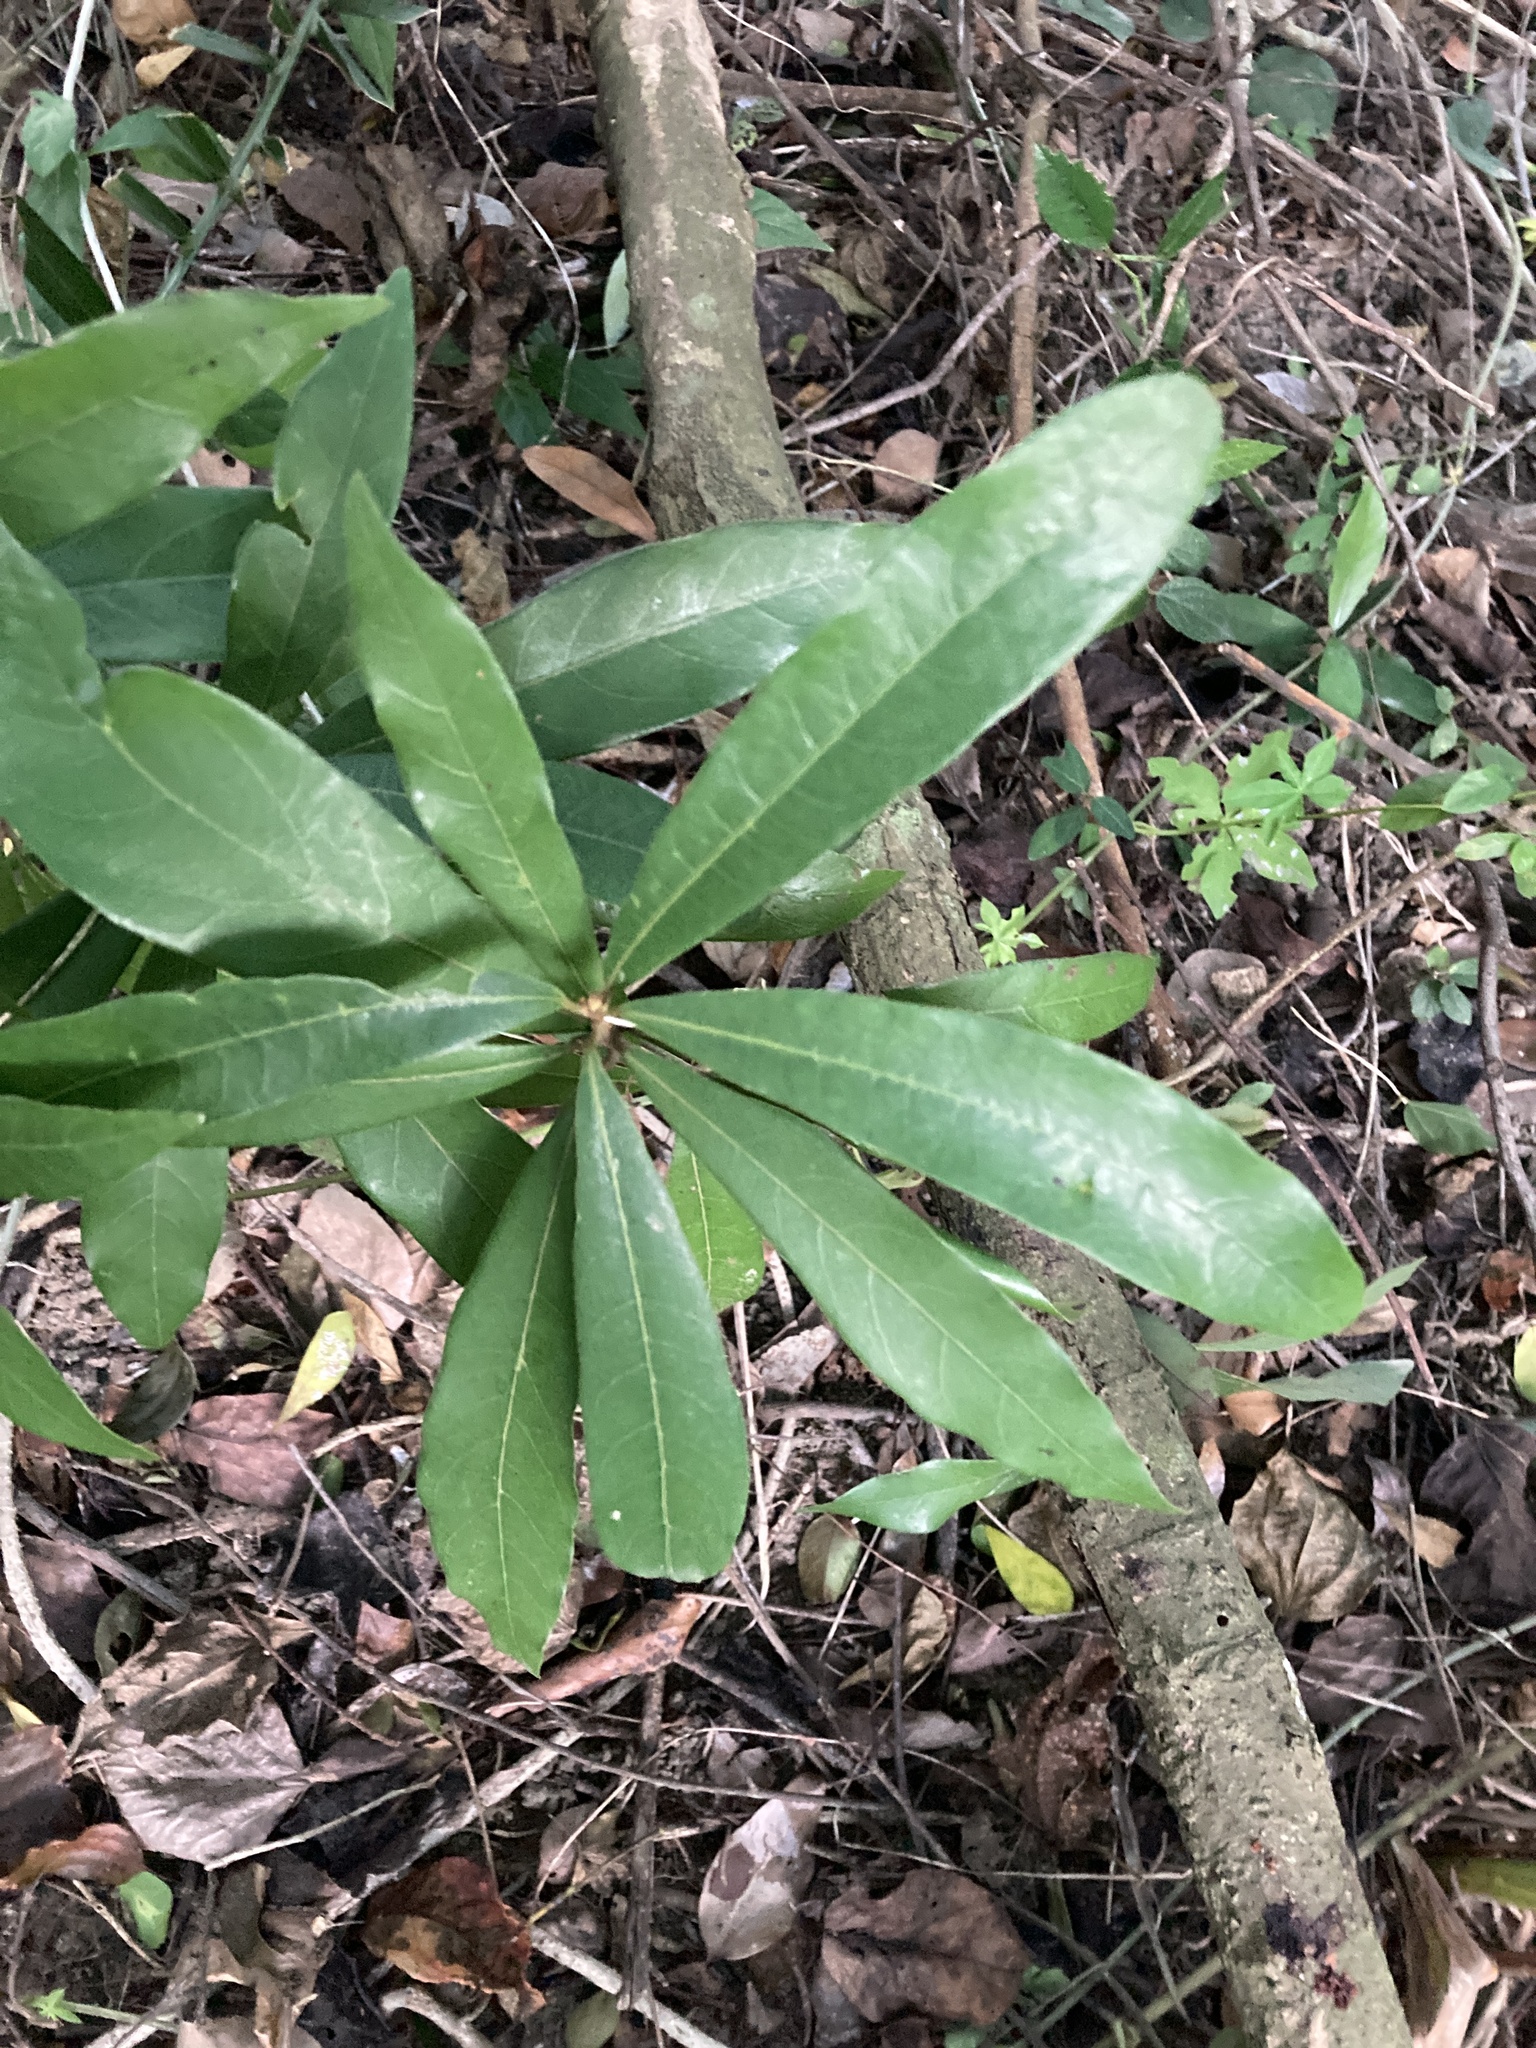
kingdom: Plantae
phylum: Tracheophyta
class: Magnoliopsida
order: Laurales
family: Lauraceae
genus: Litsea
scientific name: Litsea hypophaea
